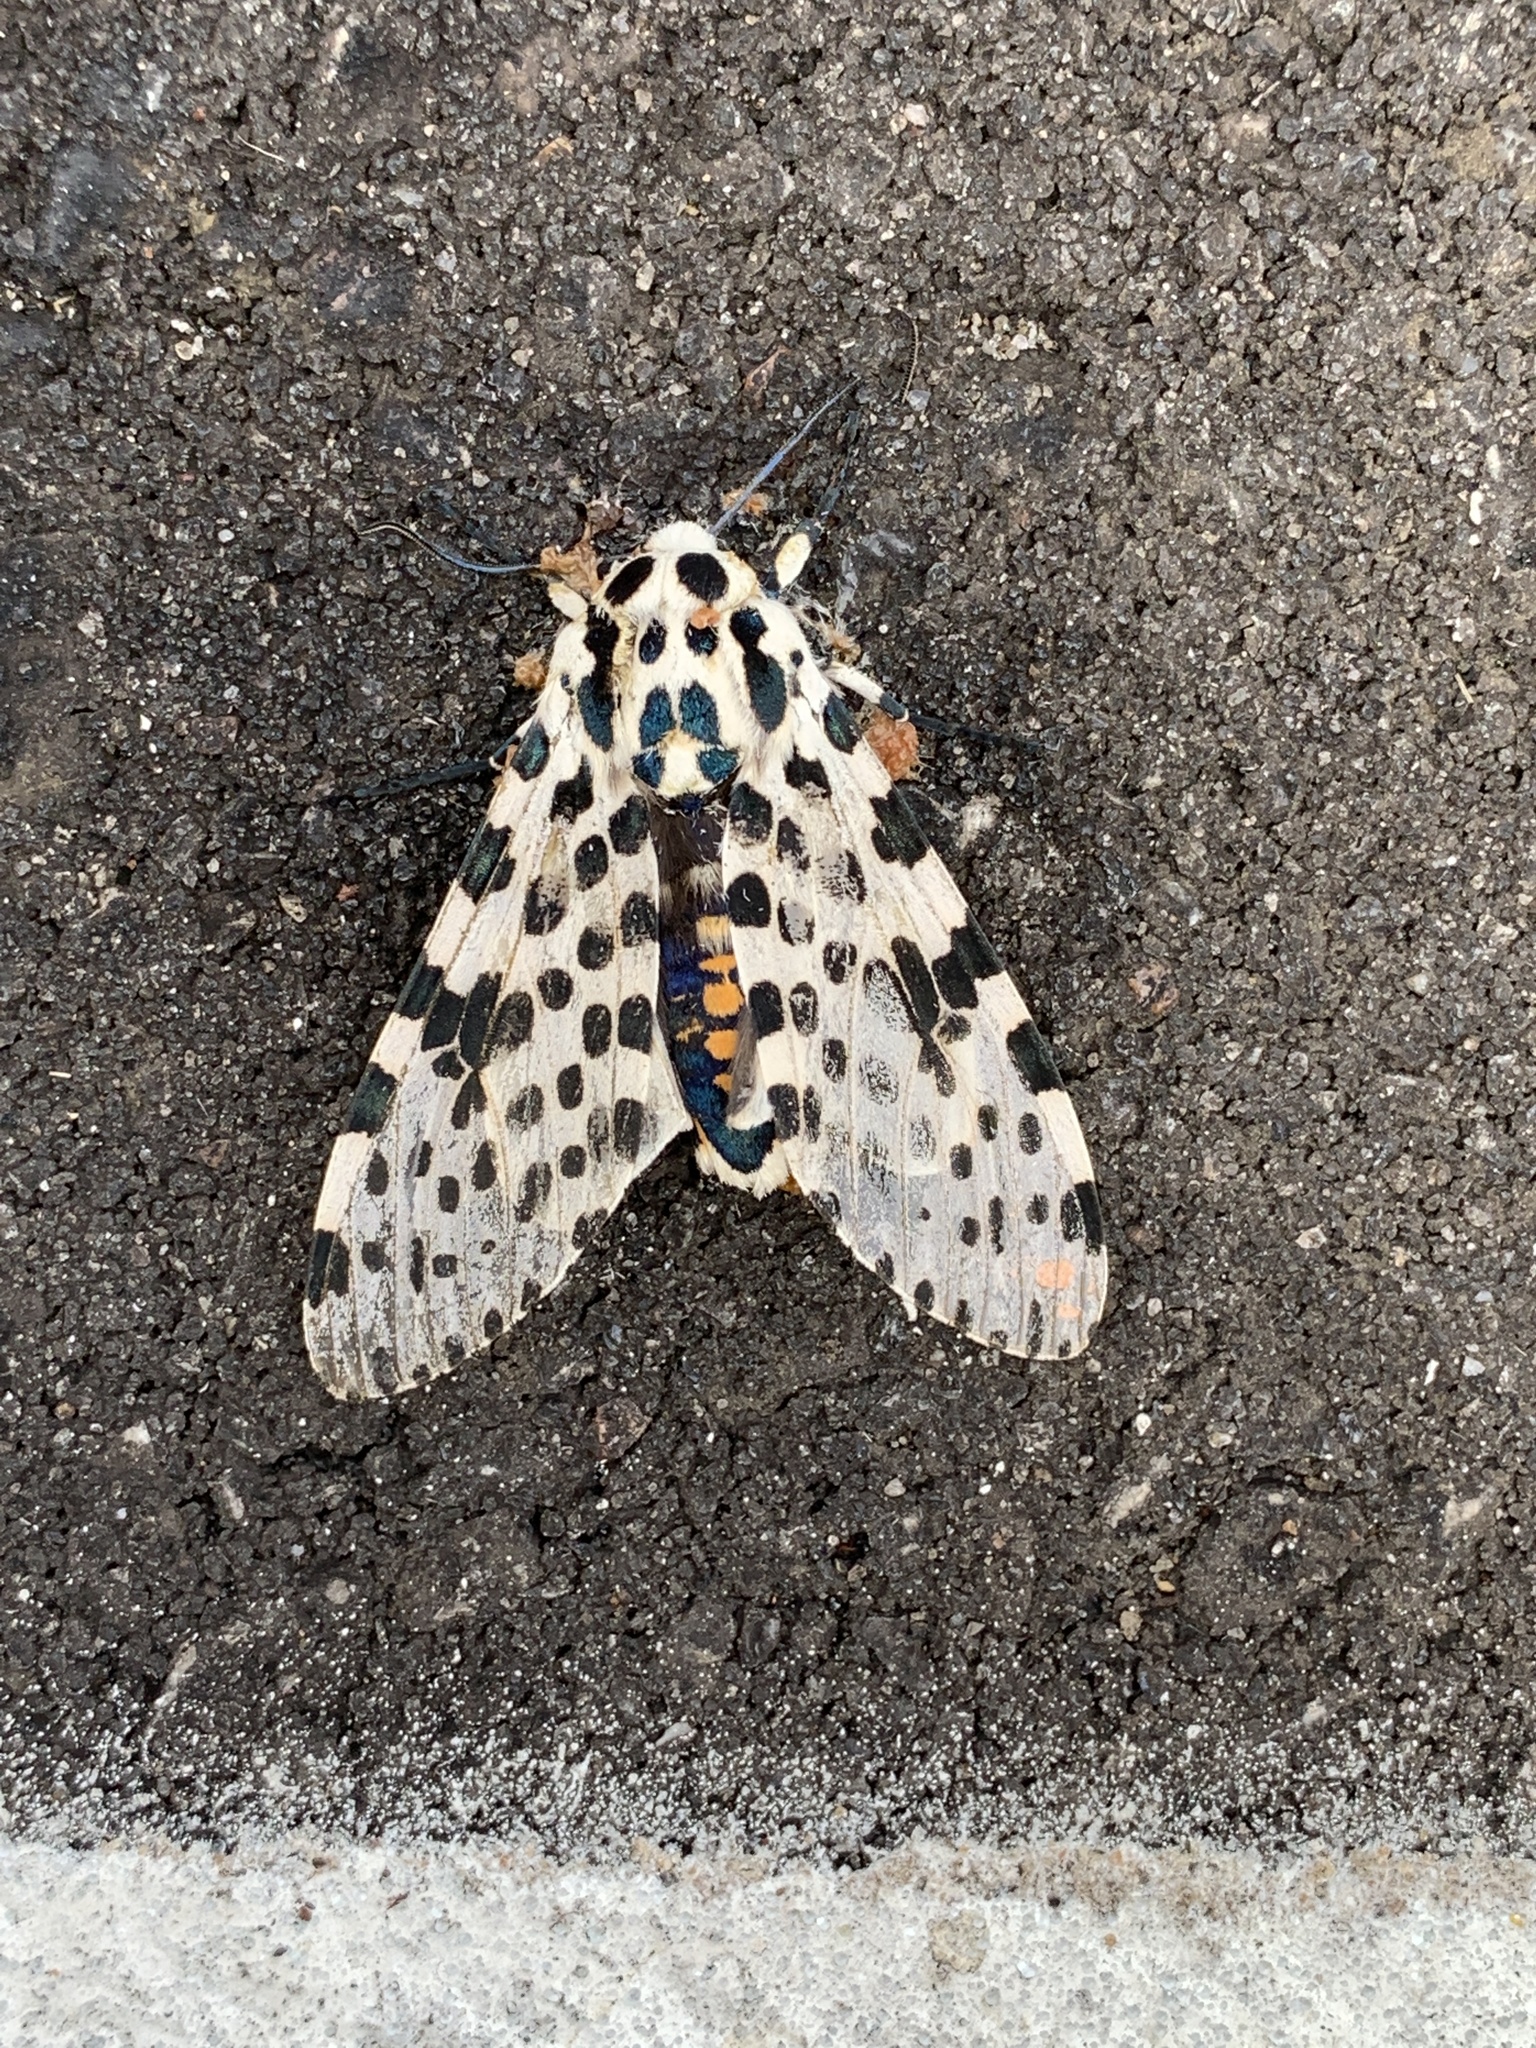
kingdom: Animalia
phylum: Arthropoda
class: Insecta
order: Lepidoptera
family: Erebidae
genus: Hypercompe
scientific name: Hypercompe scribonia
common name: Giant leopard moth
